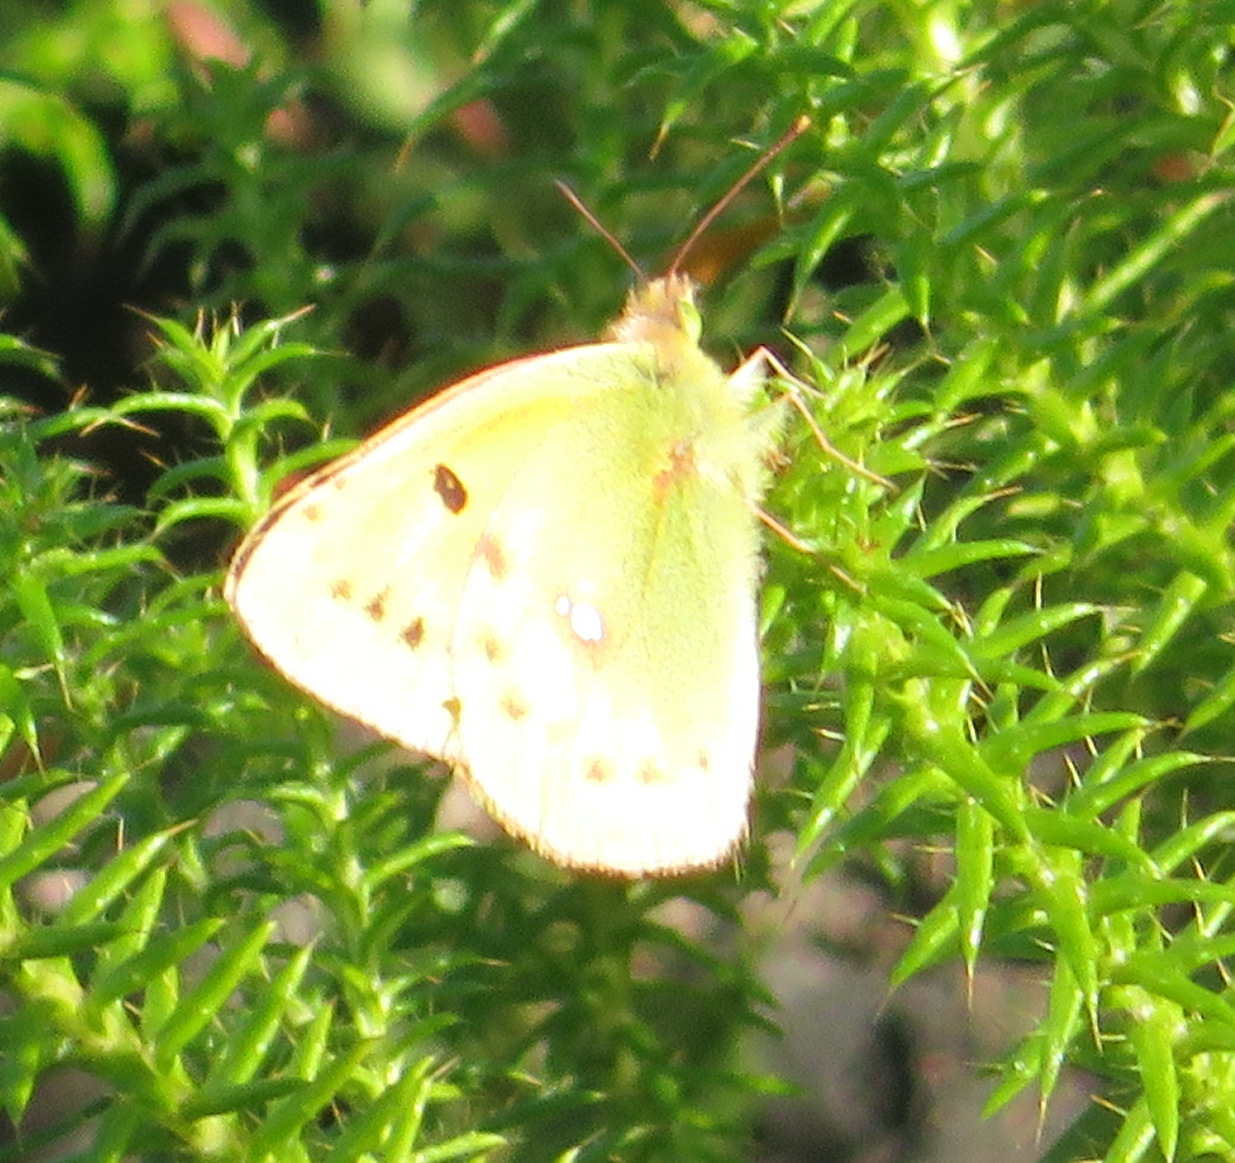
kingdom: Animalia
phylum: Arthropoda
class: Insecta
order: Lepidoptera
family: Pieridae
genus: Colias
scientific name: Colias electo
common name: African clouded yellow
